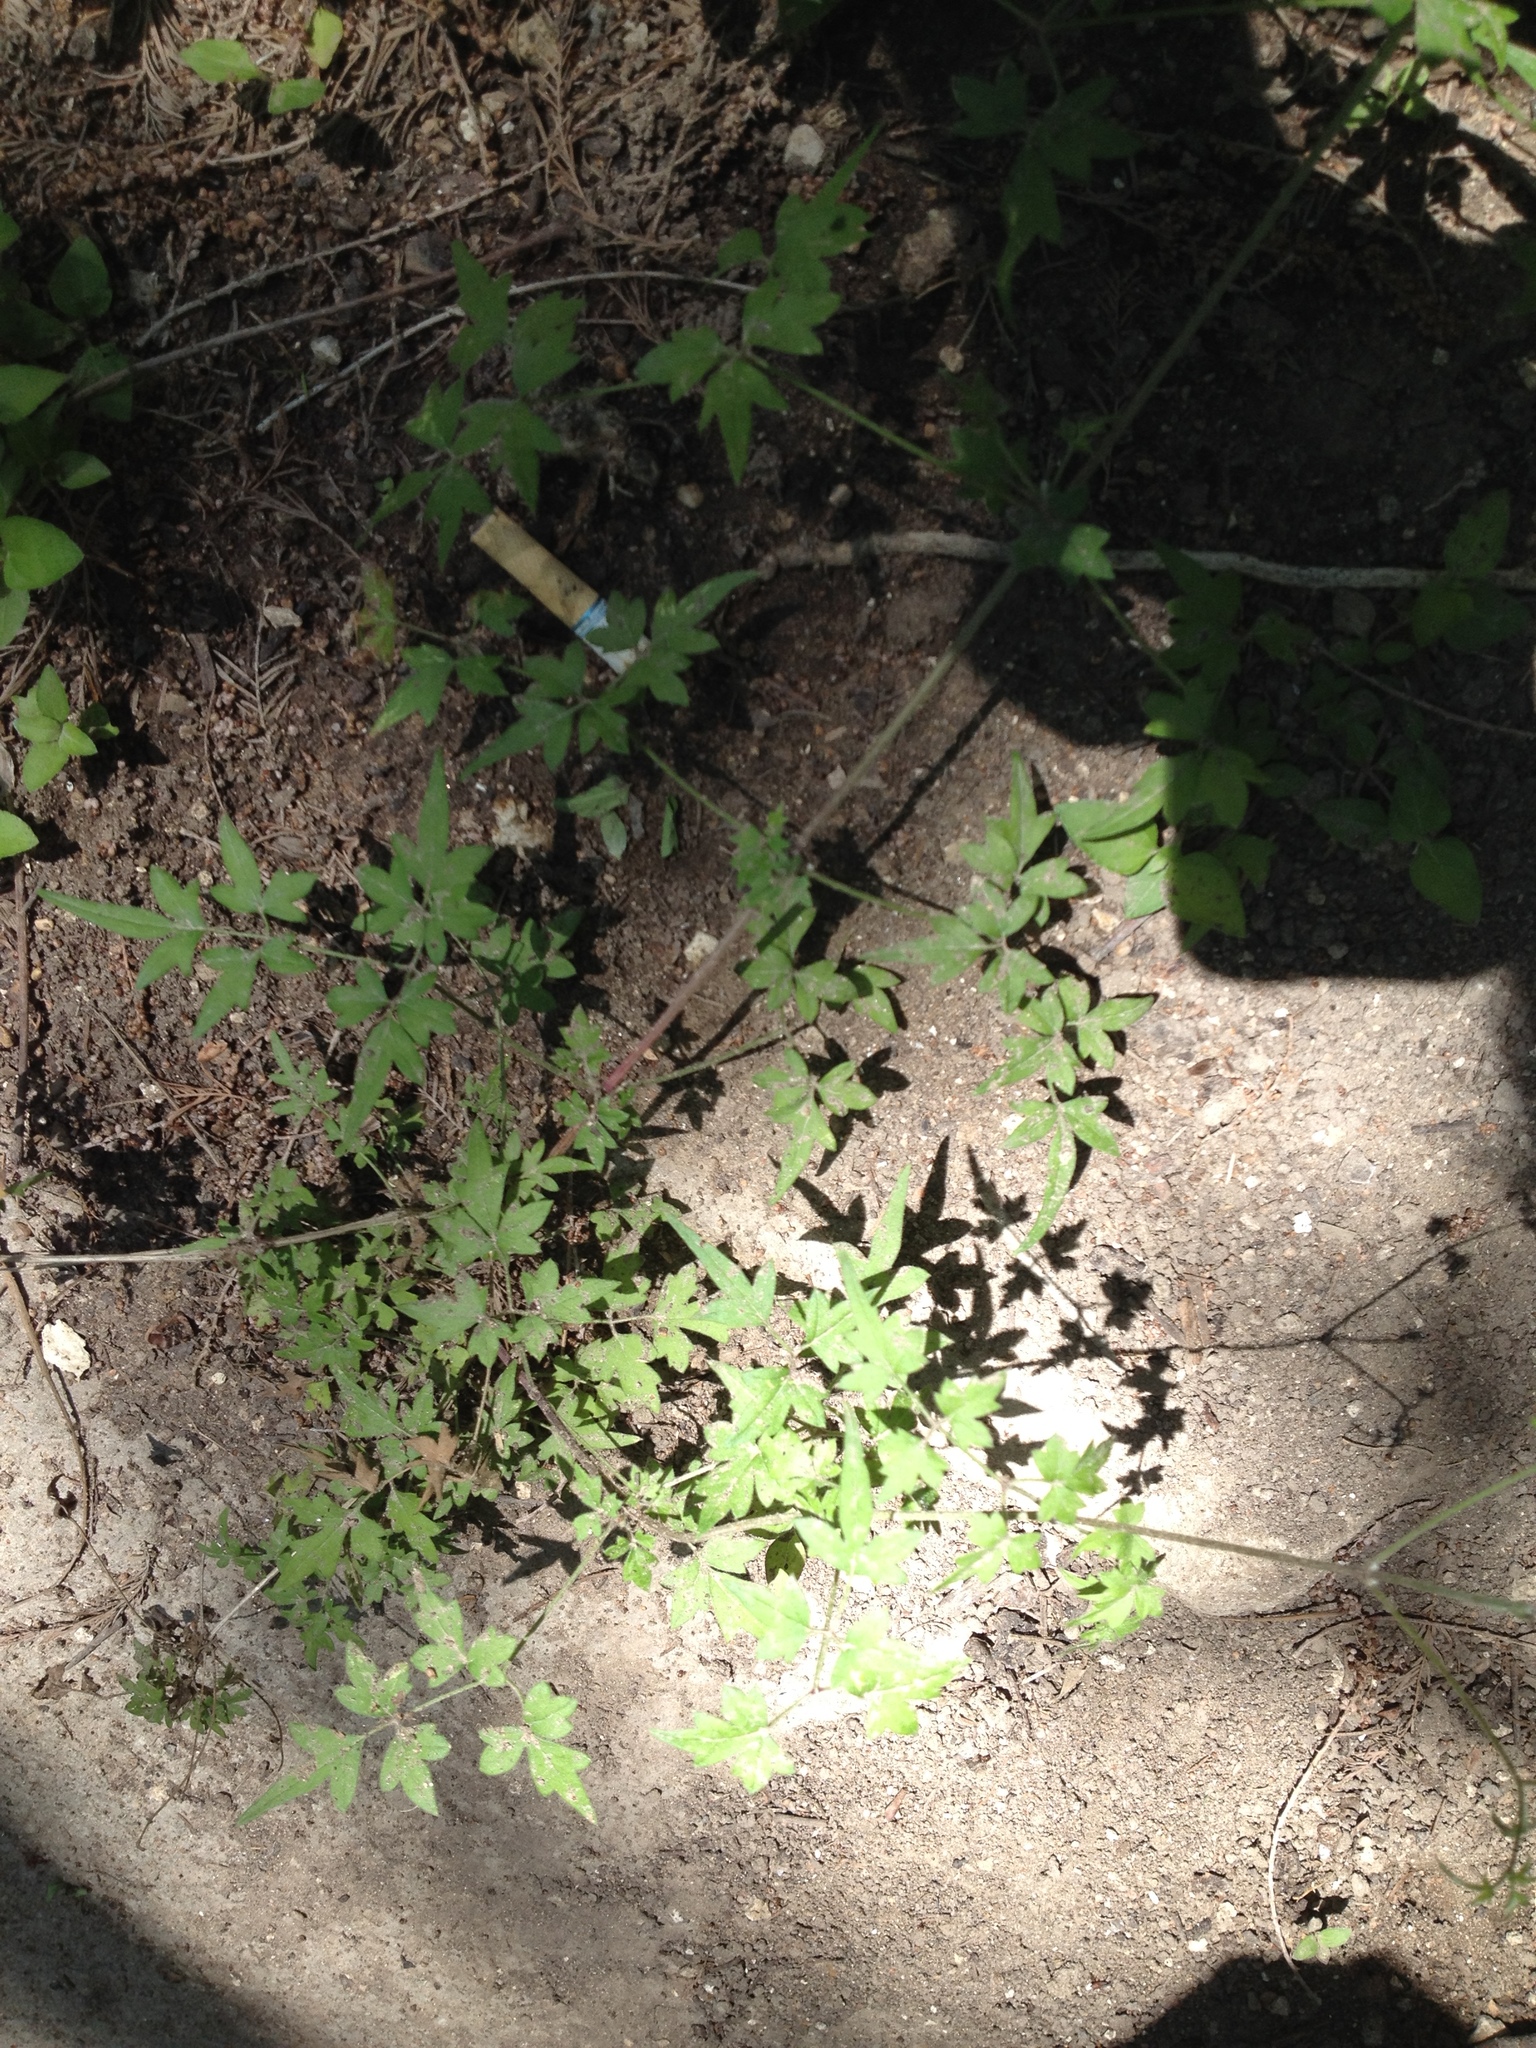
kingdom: Plantae
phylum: Tracheophyta
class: Magnoliopsida
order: Ranunculales
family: Ranunculaceae
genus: Clematis
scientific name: Clematis drummondii
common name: Texas virgin's bower
